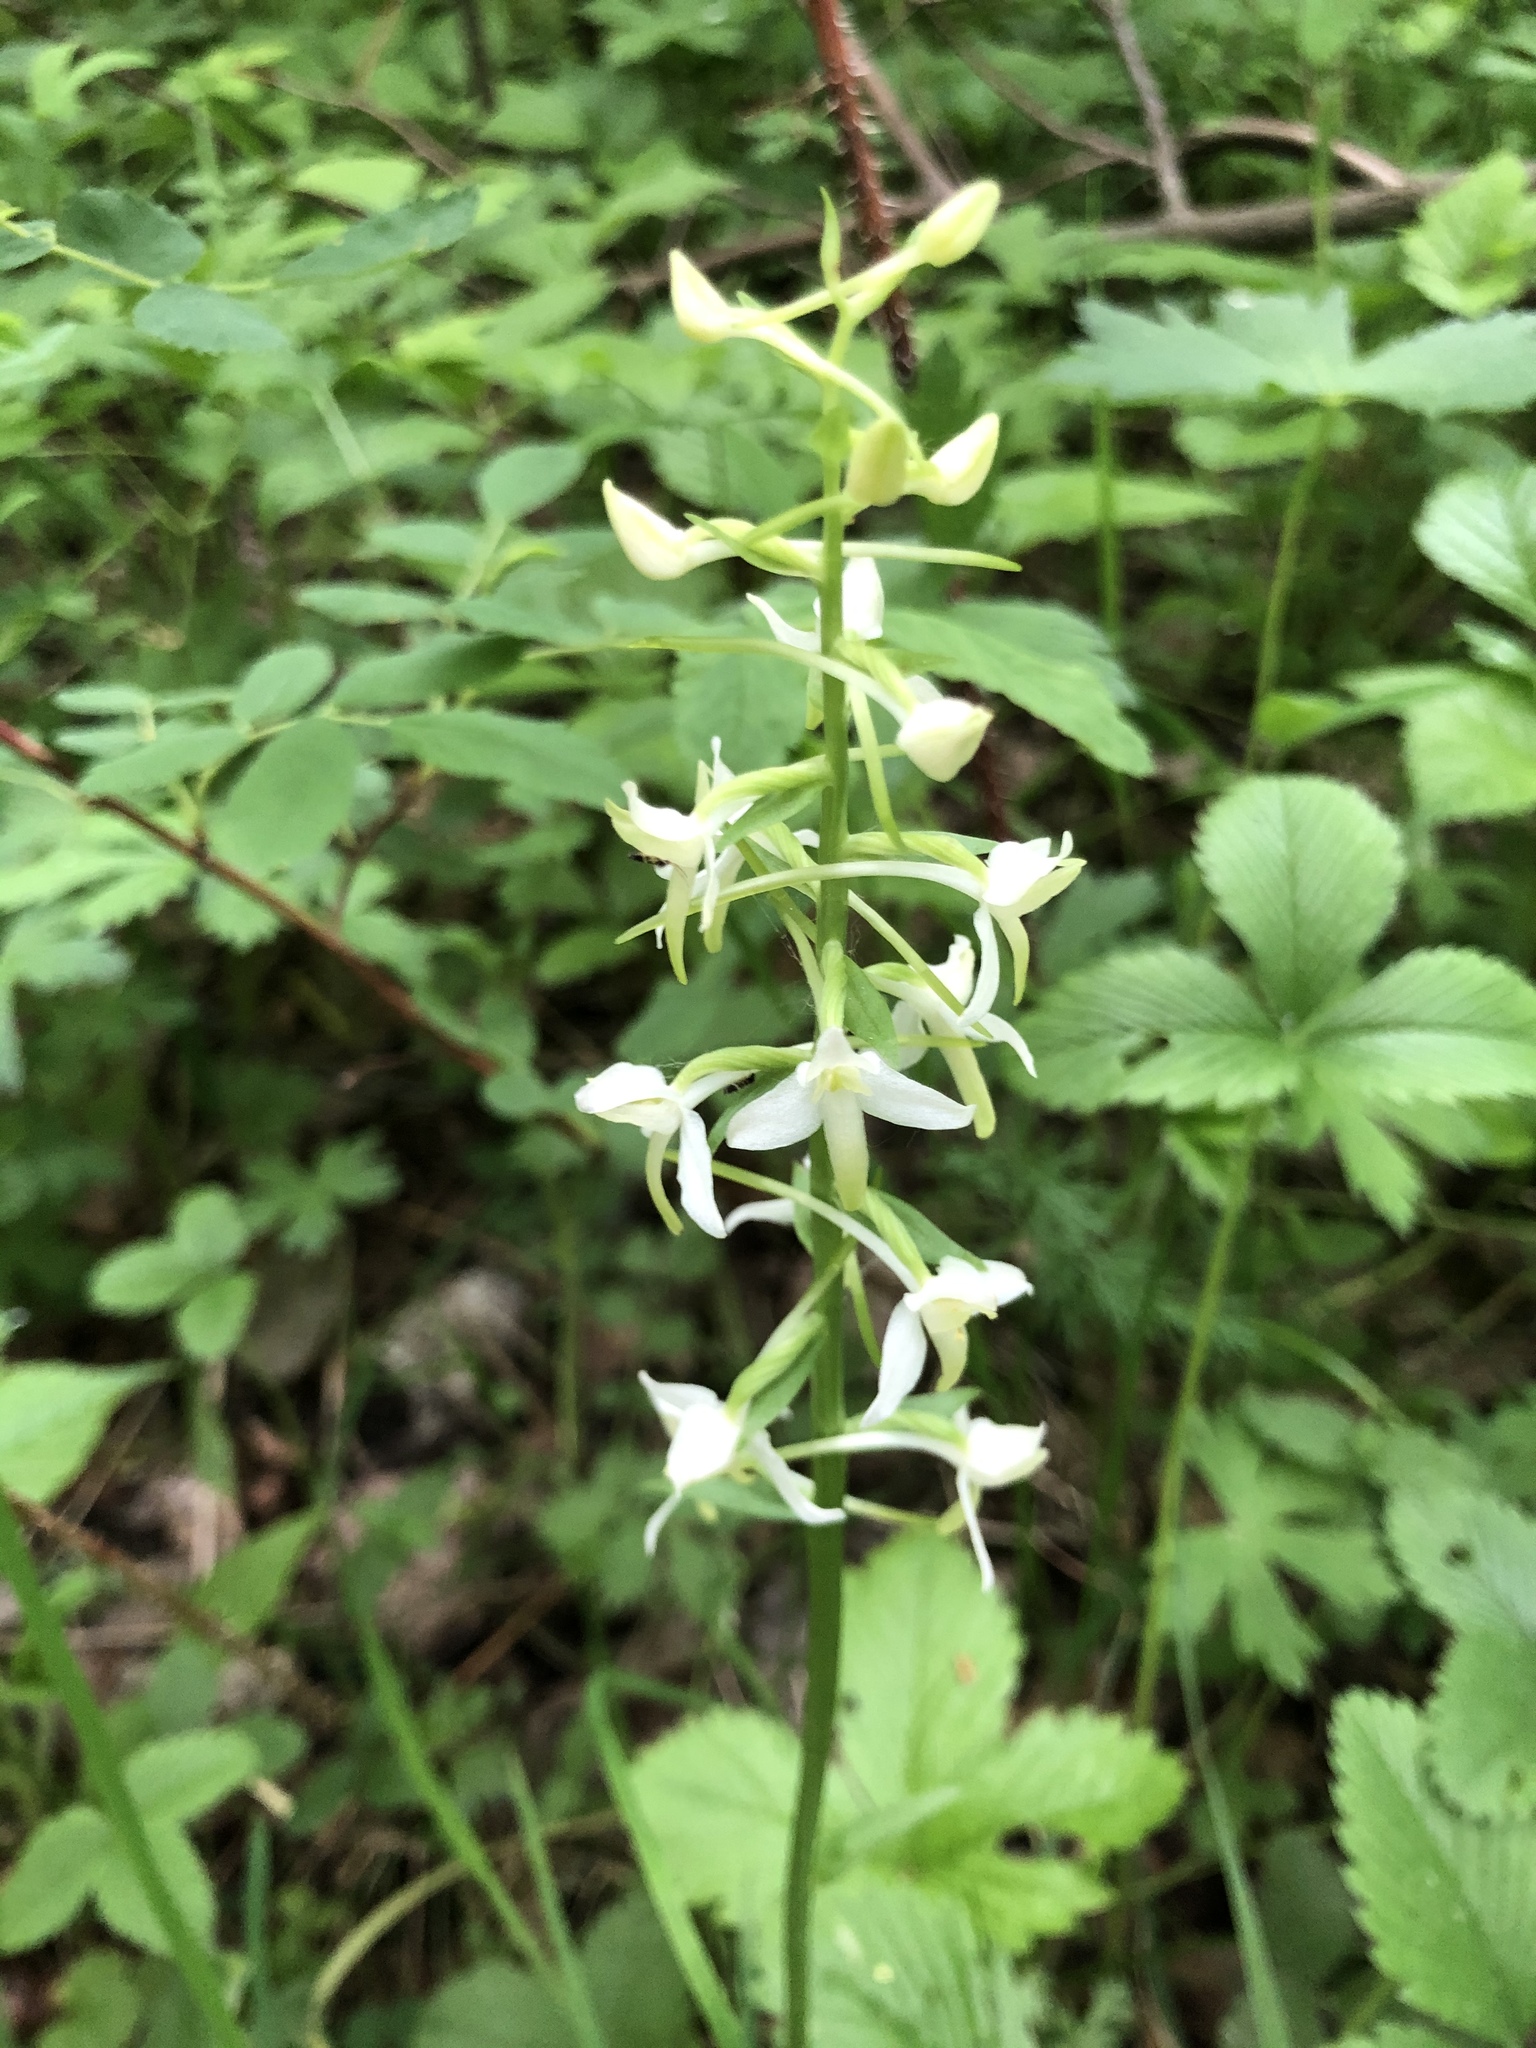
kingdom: Plantae
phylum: Tracheophyta
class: Liliopsida
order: Asparagales
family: Orchidaceae
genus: Platanthera
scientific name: Platanthera bifolia
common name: Lesser butterfly-orchid
